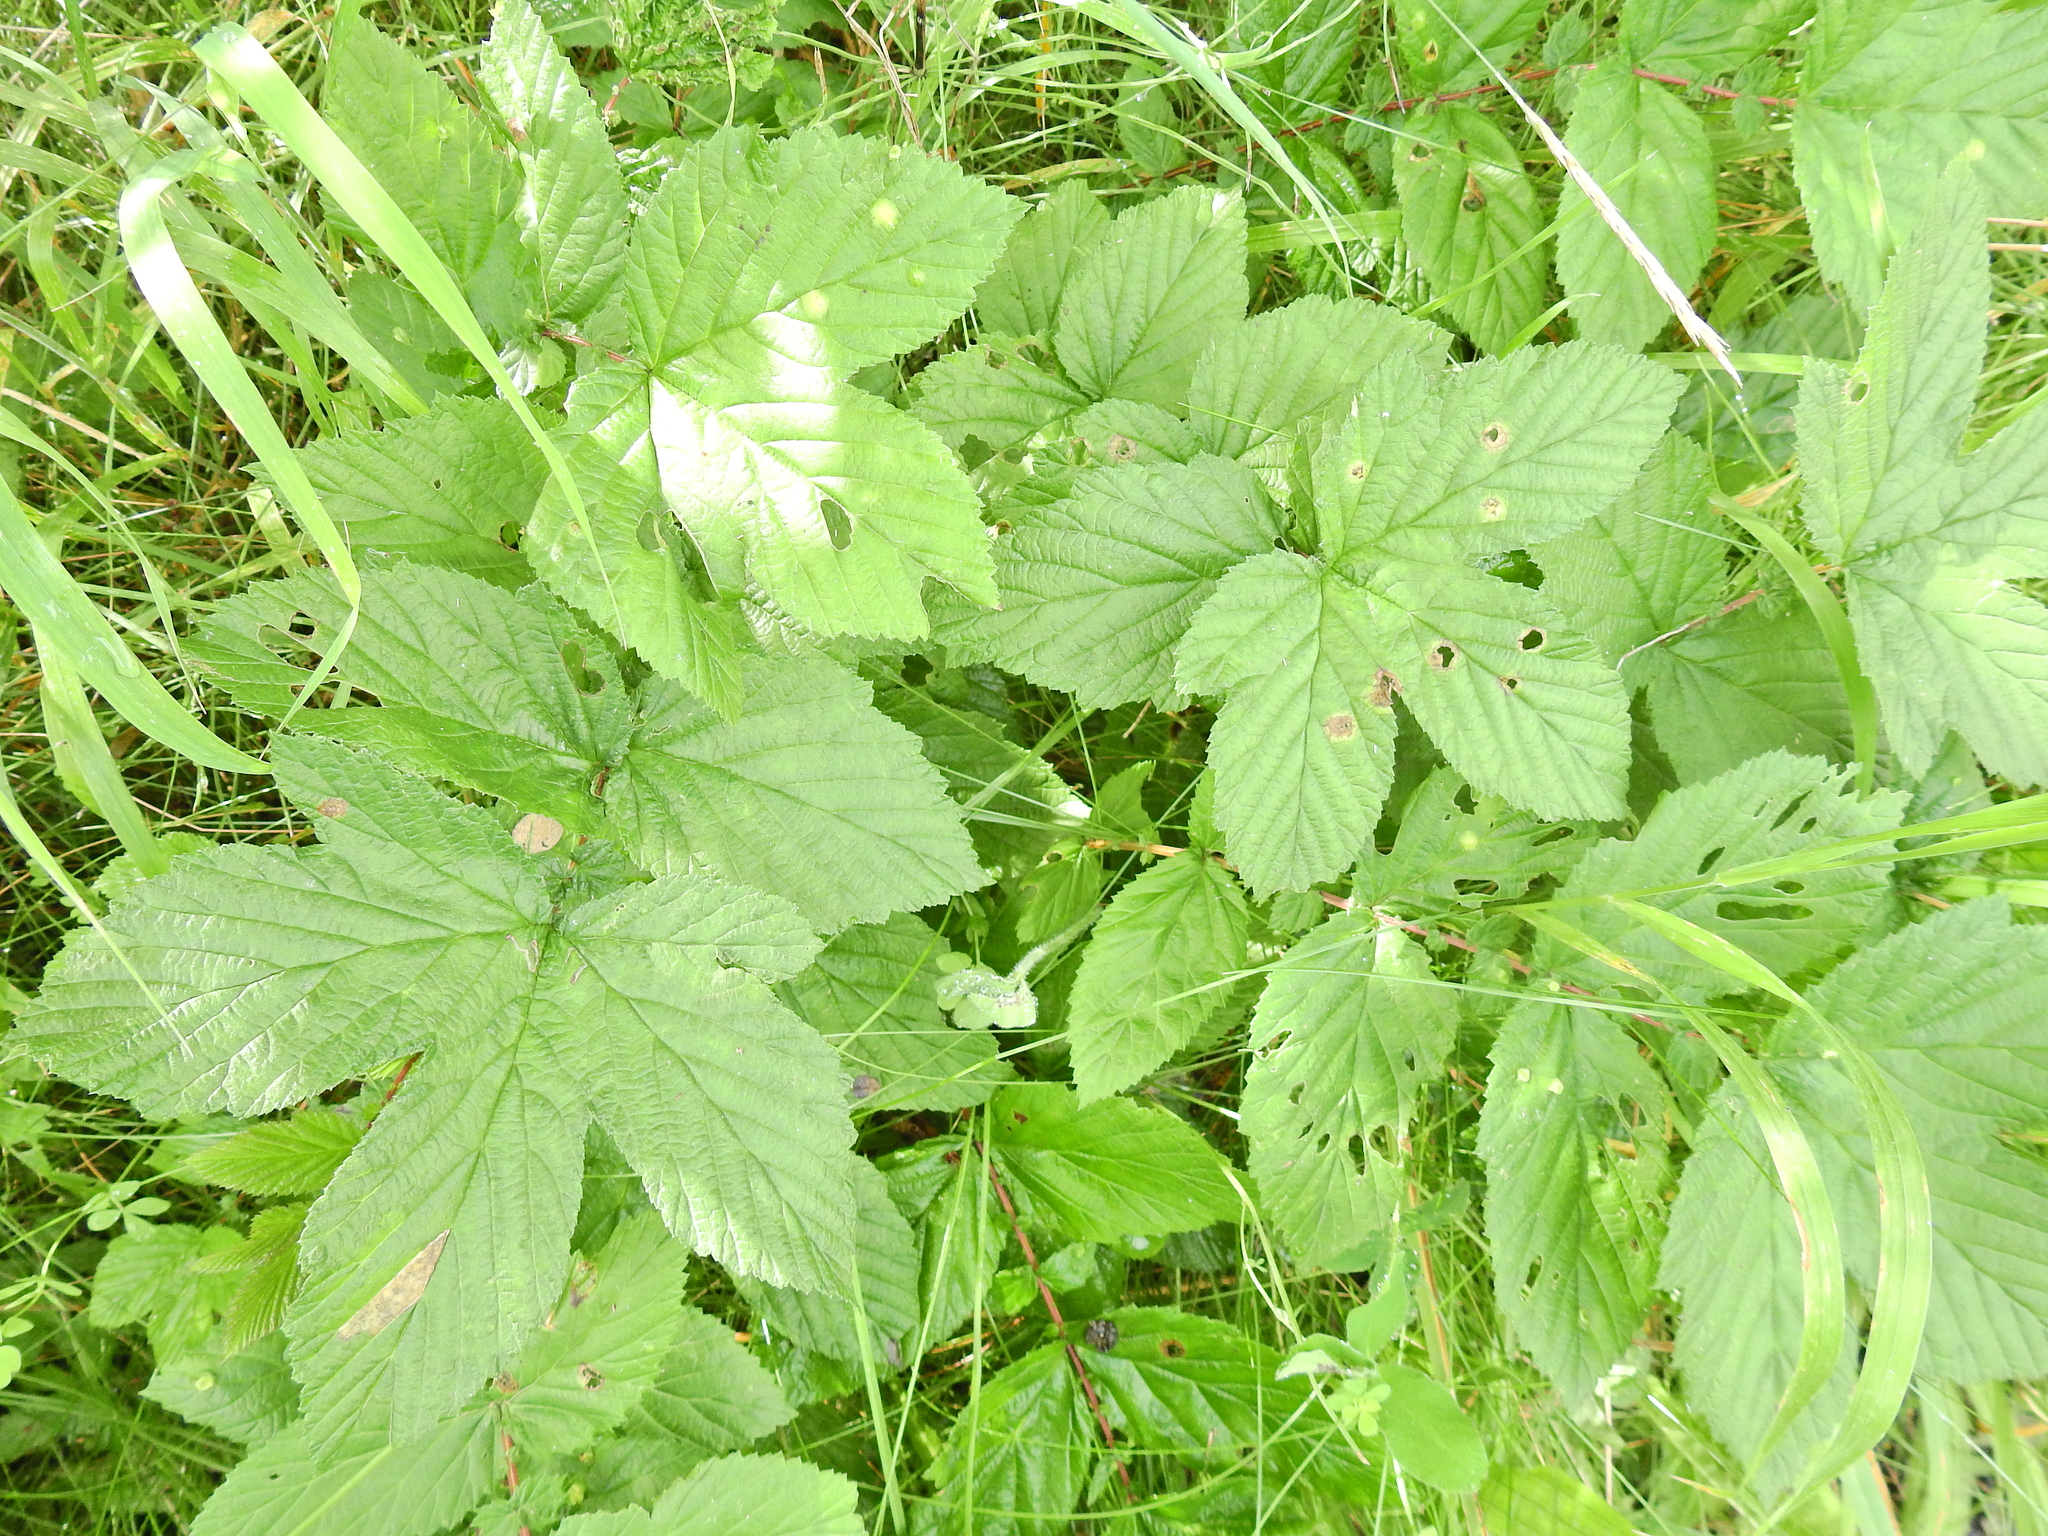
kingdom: Plantae
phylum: Tracheophyta
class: Magnoliopsida
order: Rosales
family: Rosaceae
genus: Filipendula
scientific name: Filipendula ulmaria
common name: Meadowsweet
